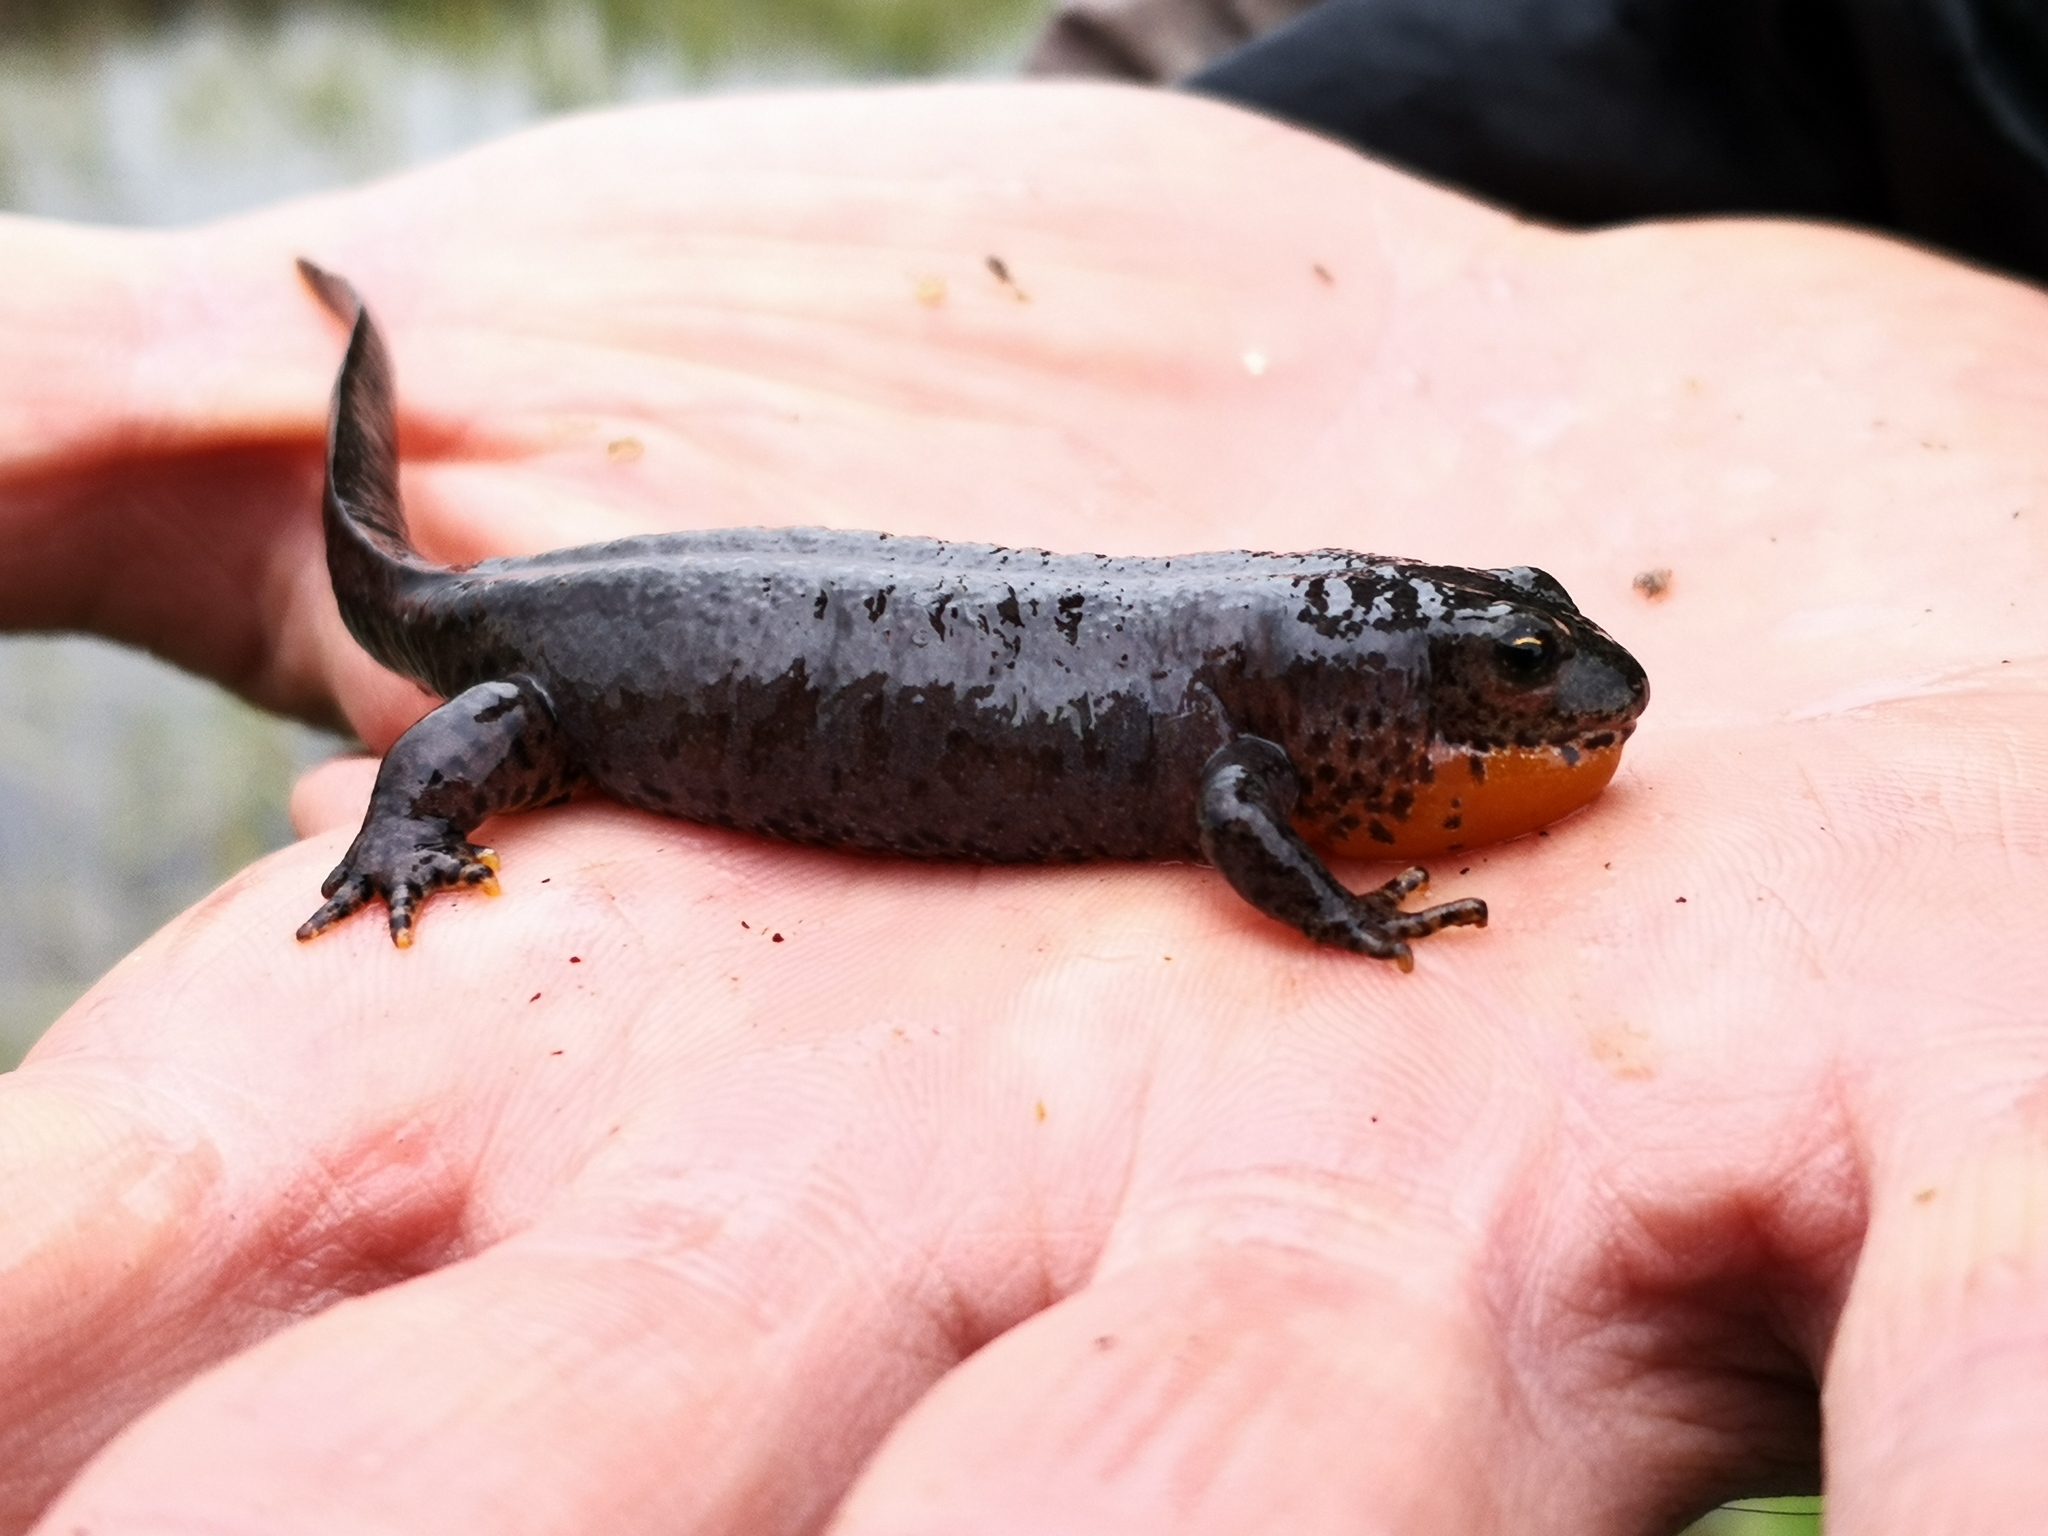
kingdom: Animalia
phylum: Chordata
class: Amphibia
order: Caudata
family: Salamandridae
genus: Ichthyosaura
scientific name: Ichthyosaura alpestris
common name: Alpine newt
